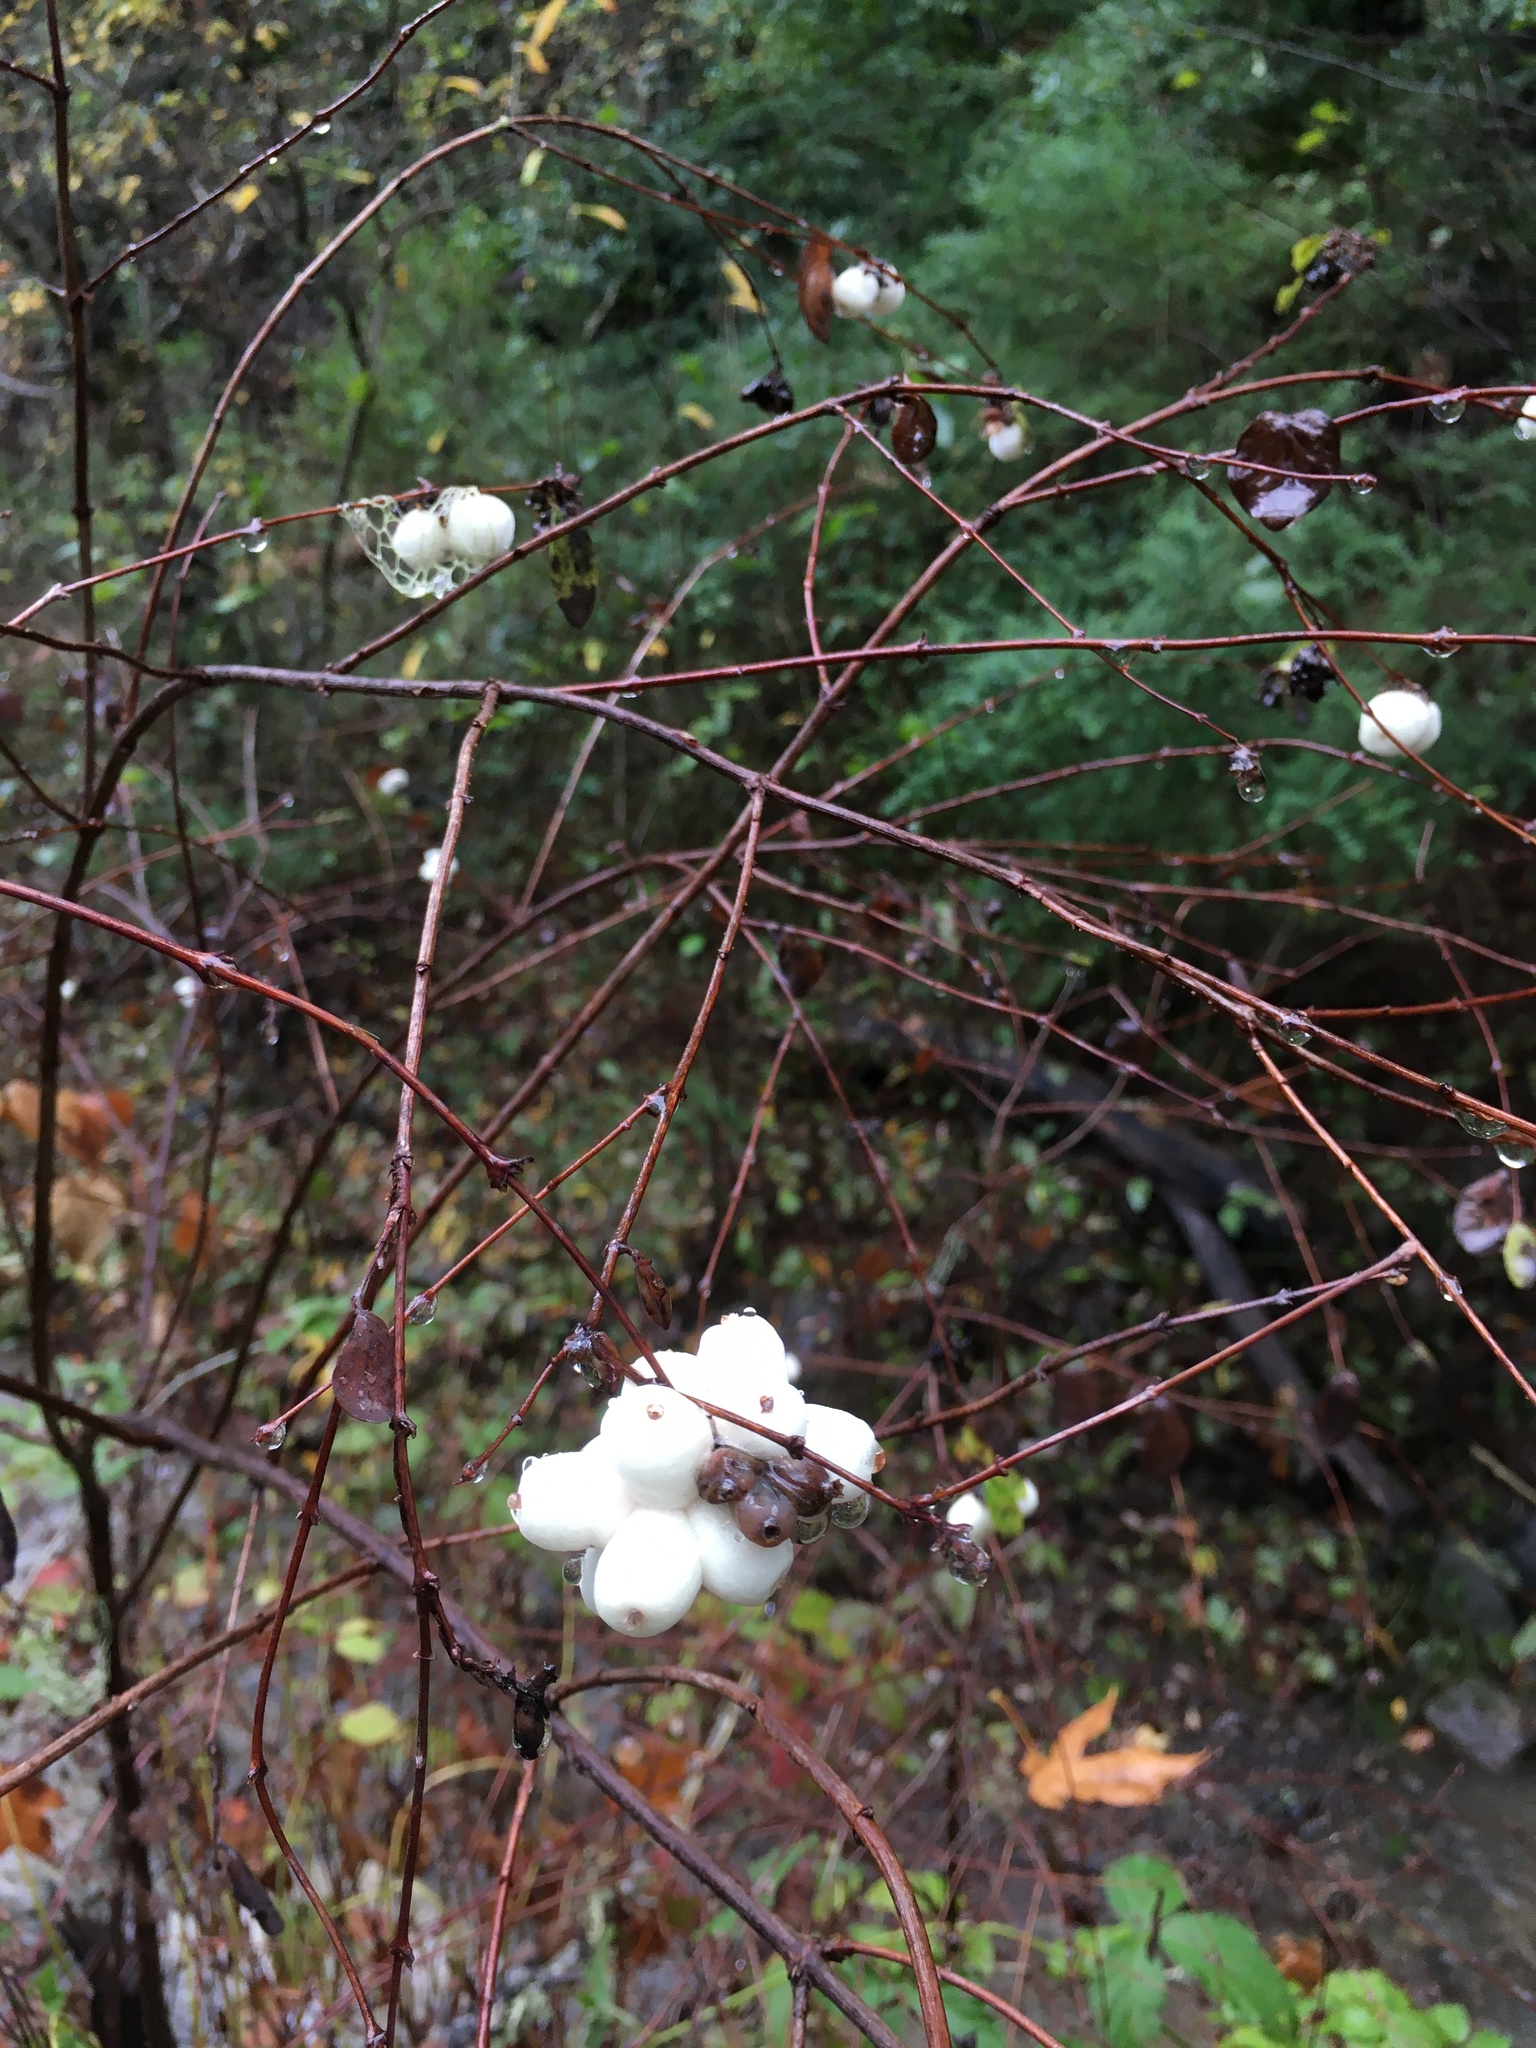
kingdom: Plantae
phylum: Tracheophyta
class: Magnoliopsida
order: Dipsacales
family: Caprifoliaceae
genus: Symphoricarpos
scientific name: Symphoricarpos albus
